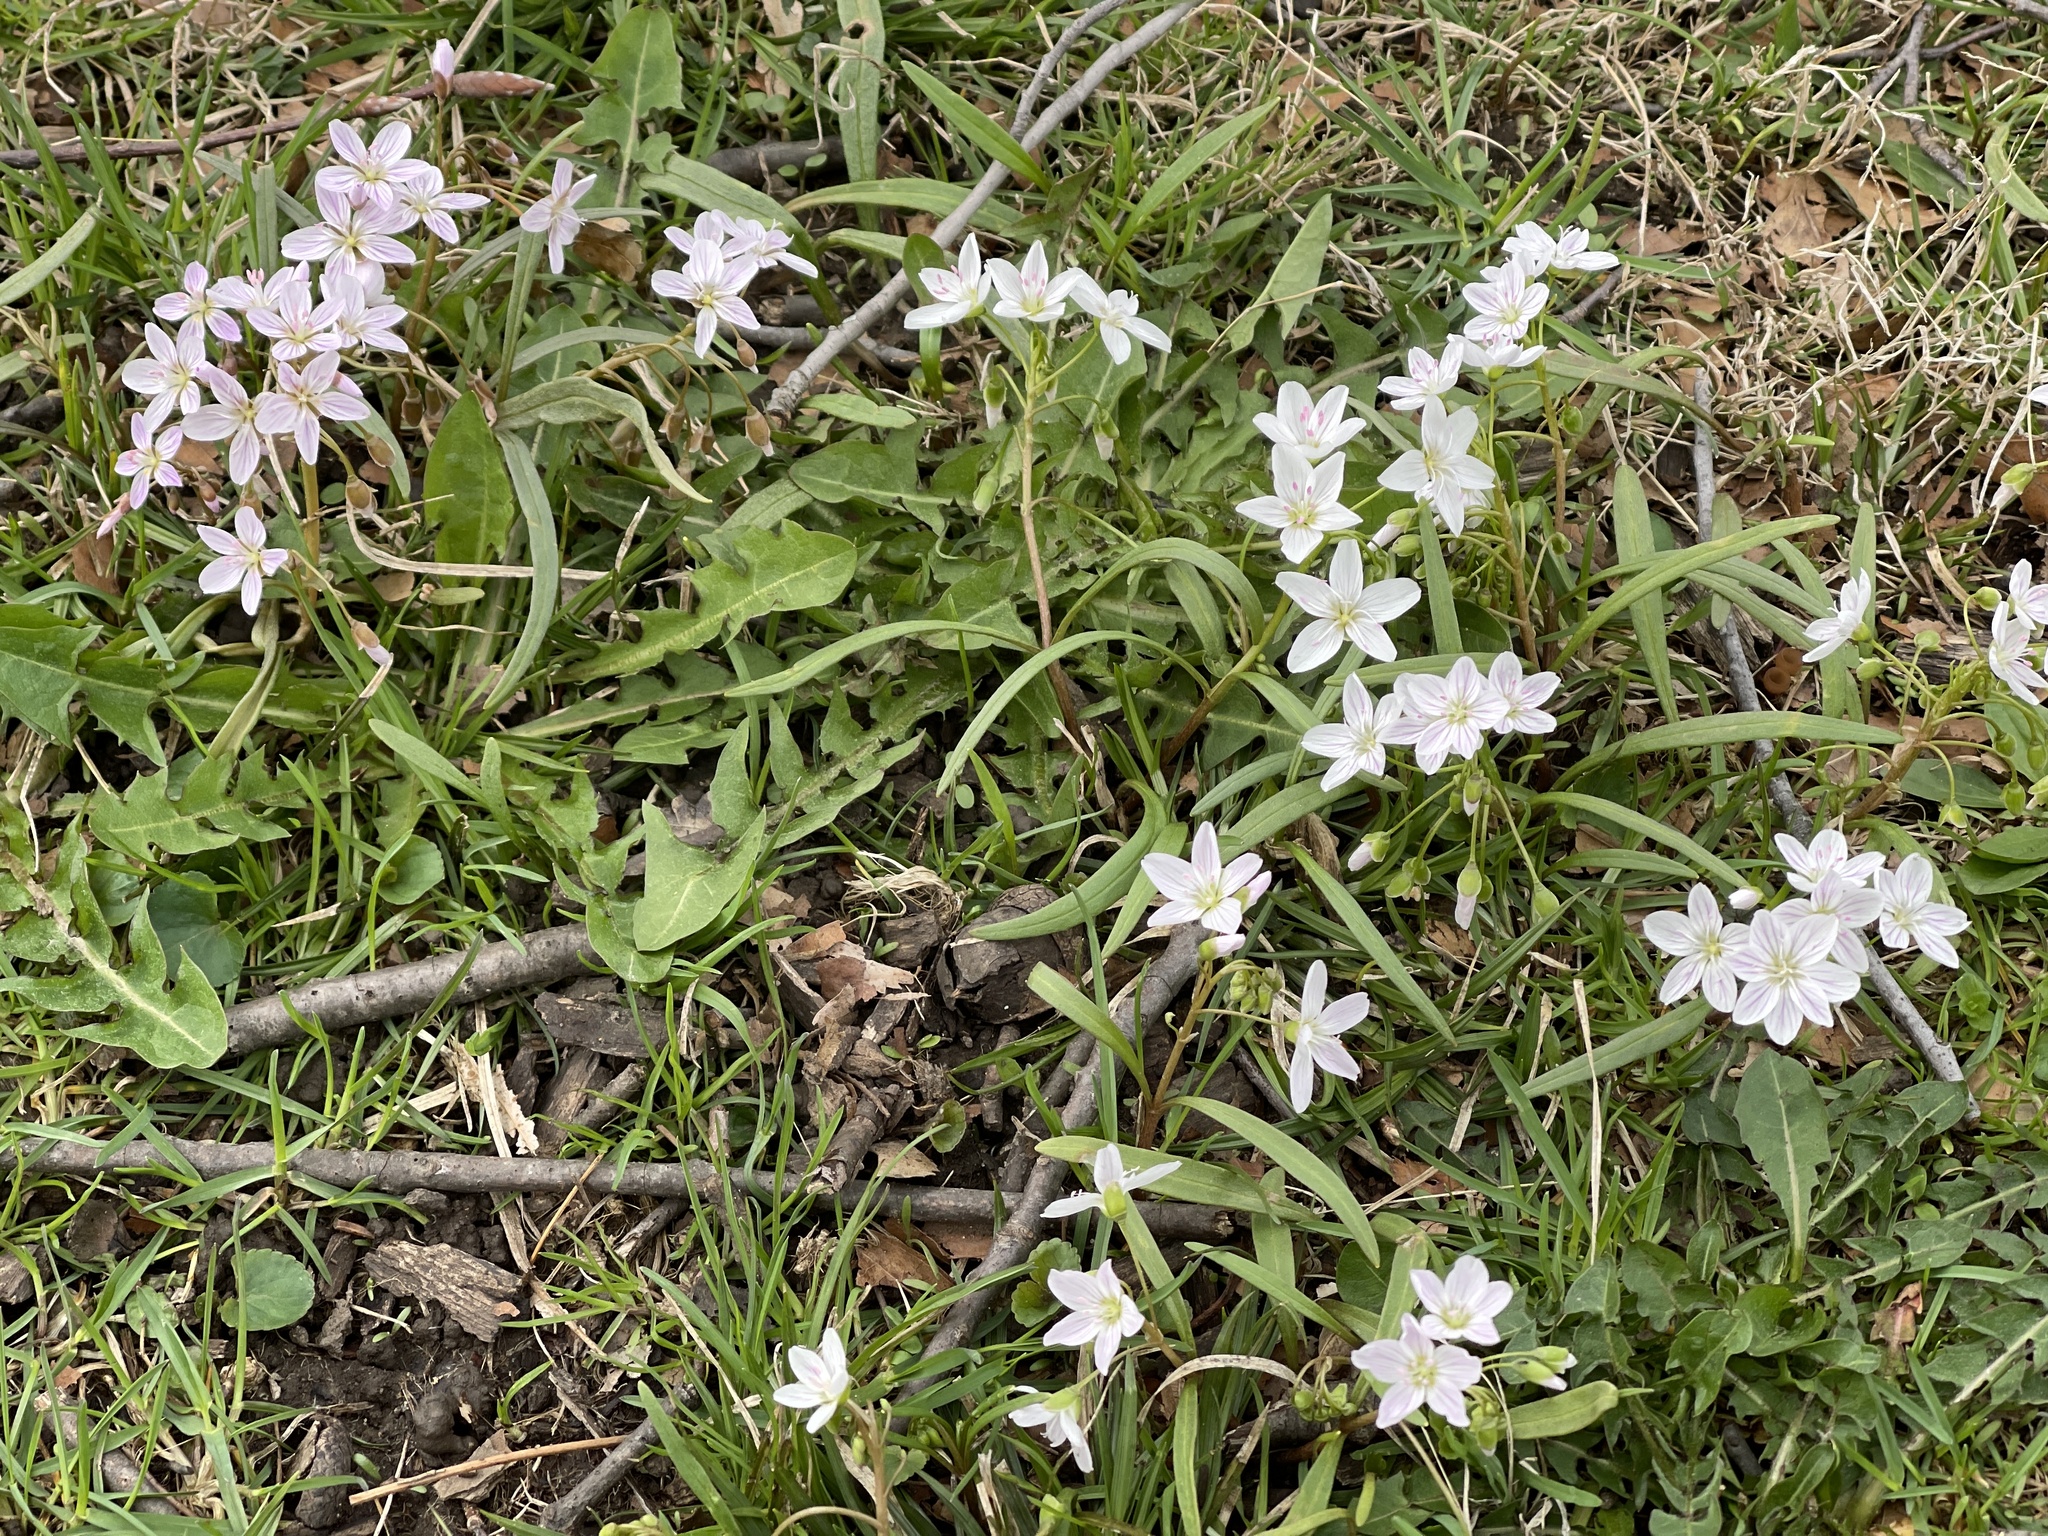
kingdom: Plantae
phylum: Tracheophyta
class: Magnoliopsida
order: Caryophyllales
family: Montiaceae
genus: Claytonia
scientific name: Claytonia virginica
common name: Virginia springbeauty
